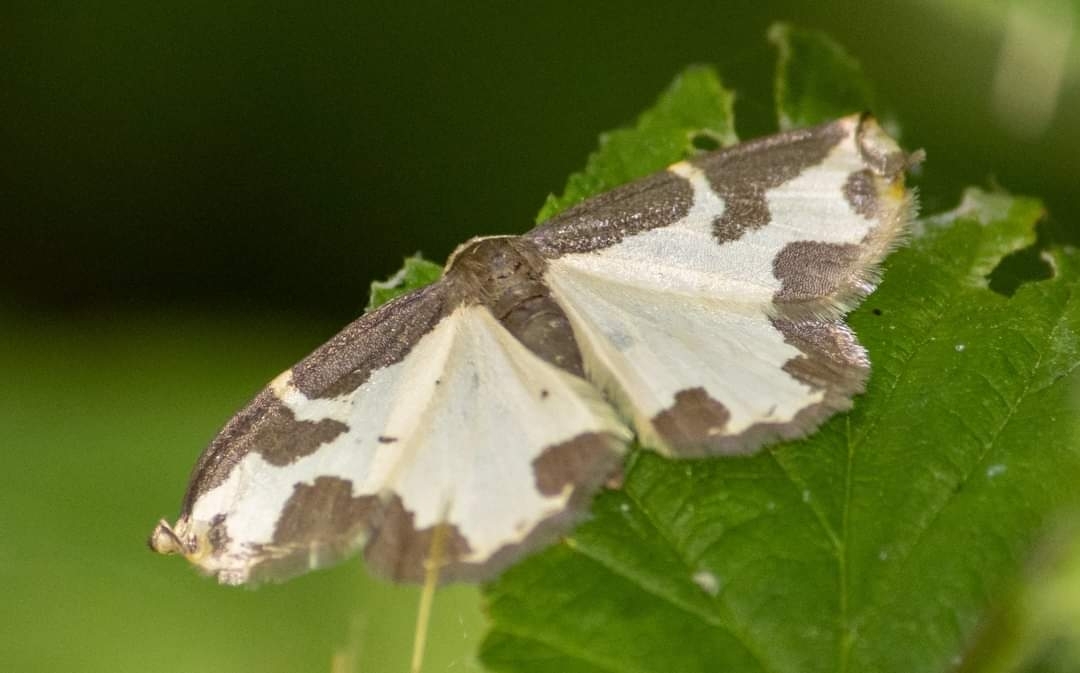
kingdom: Animalia
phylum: Arthropoda
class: Insecta
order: Lepidoptera
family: Geometridae
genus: Lomaspilis
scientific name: Lomaspilis marginata
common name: Clouded border
